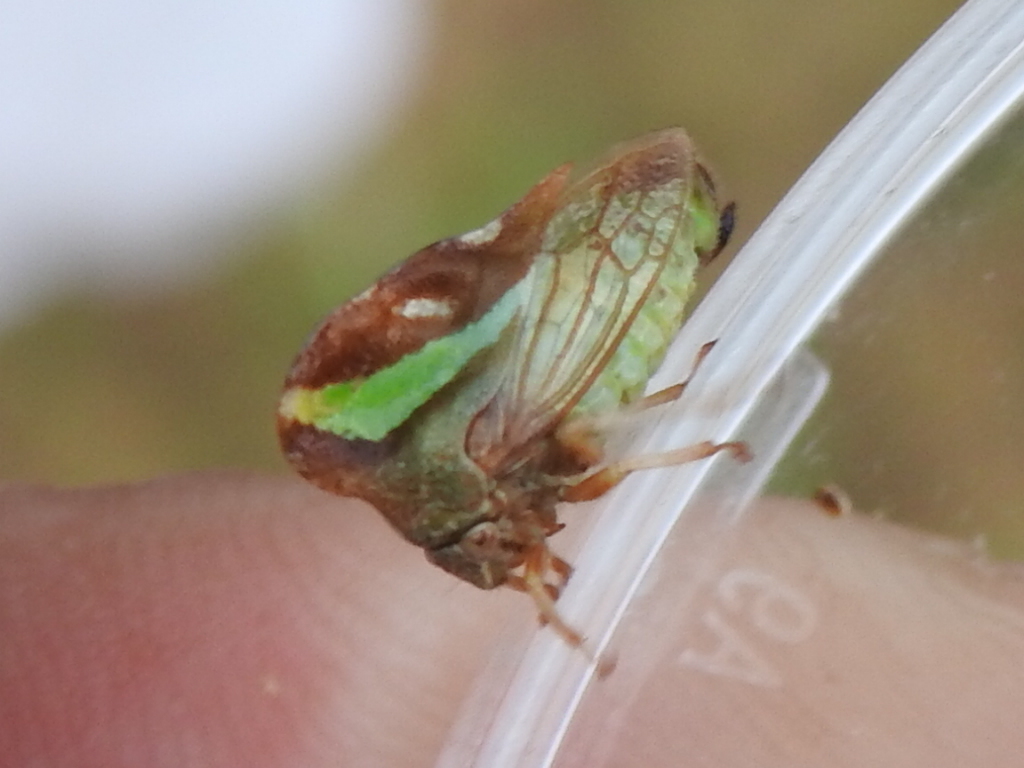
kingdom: Animalia
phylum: Arthropoda
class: Insecta
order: Hemiptera
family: Membracidae
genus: Smilia
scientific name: Smilia camelus
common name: Camel treehopper
